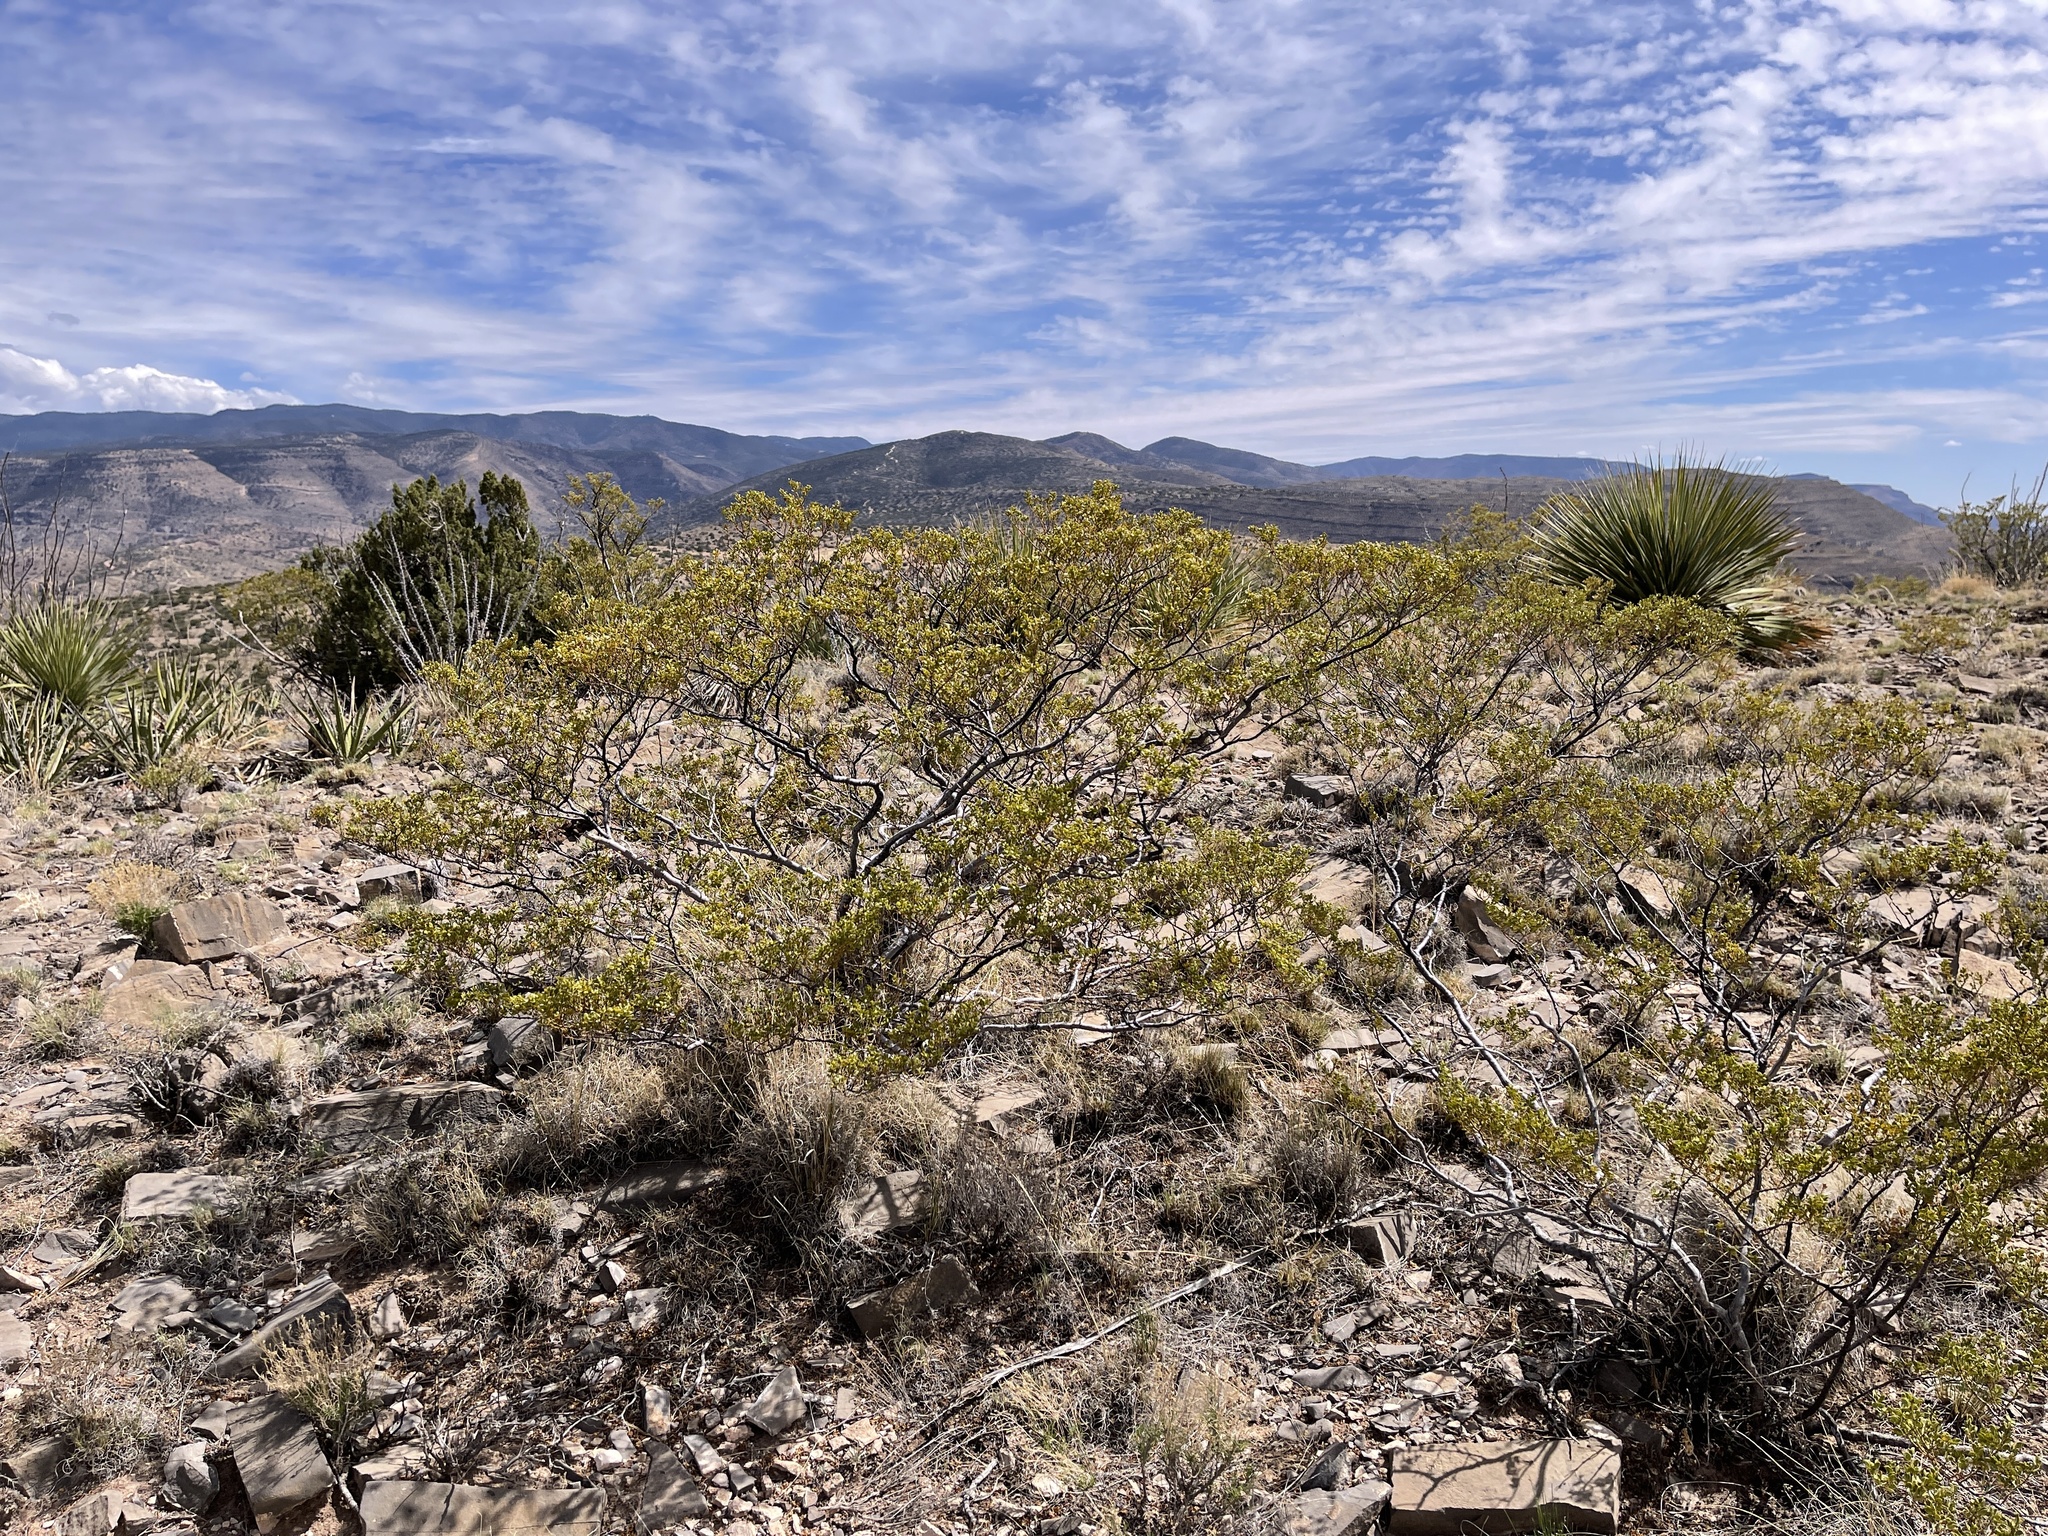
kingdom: Plantae
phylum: Tracheophyta
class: Magnoliopsida
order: Zygophyllales
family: Zygophyllaceae
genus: Larrea
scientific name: Larrea tridentata
